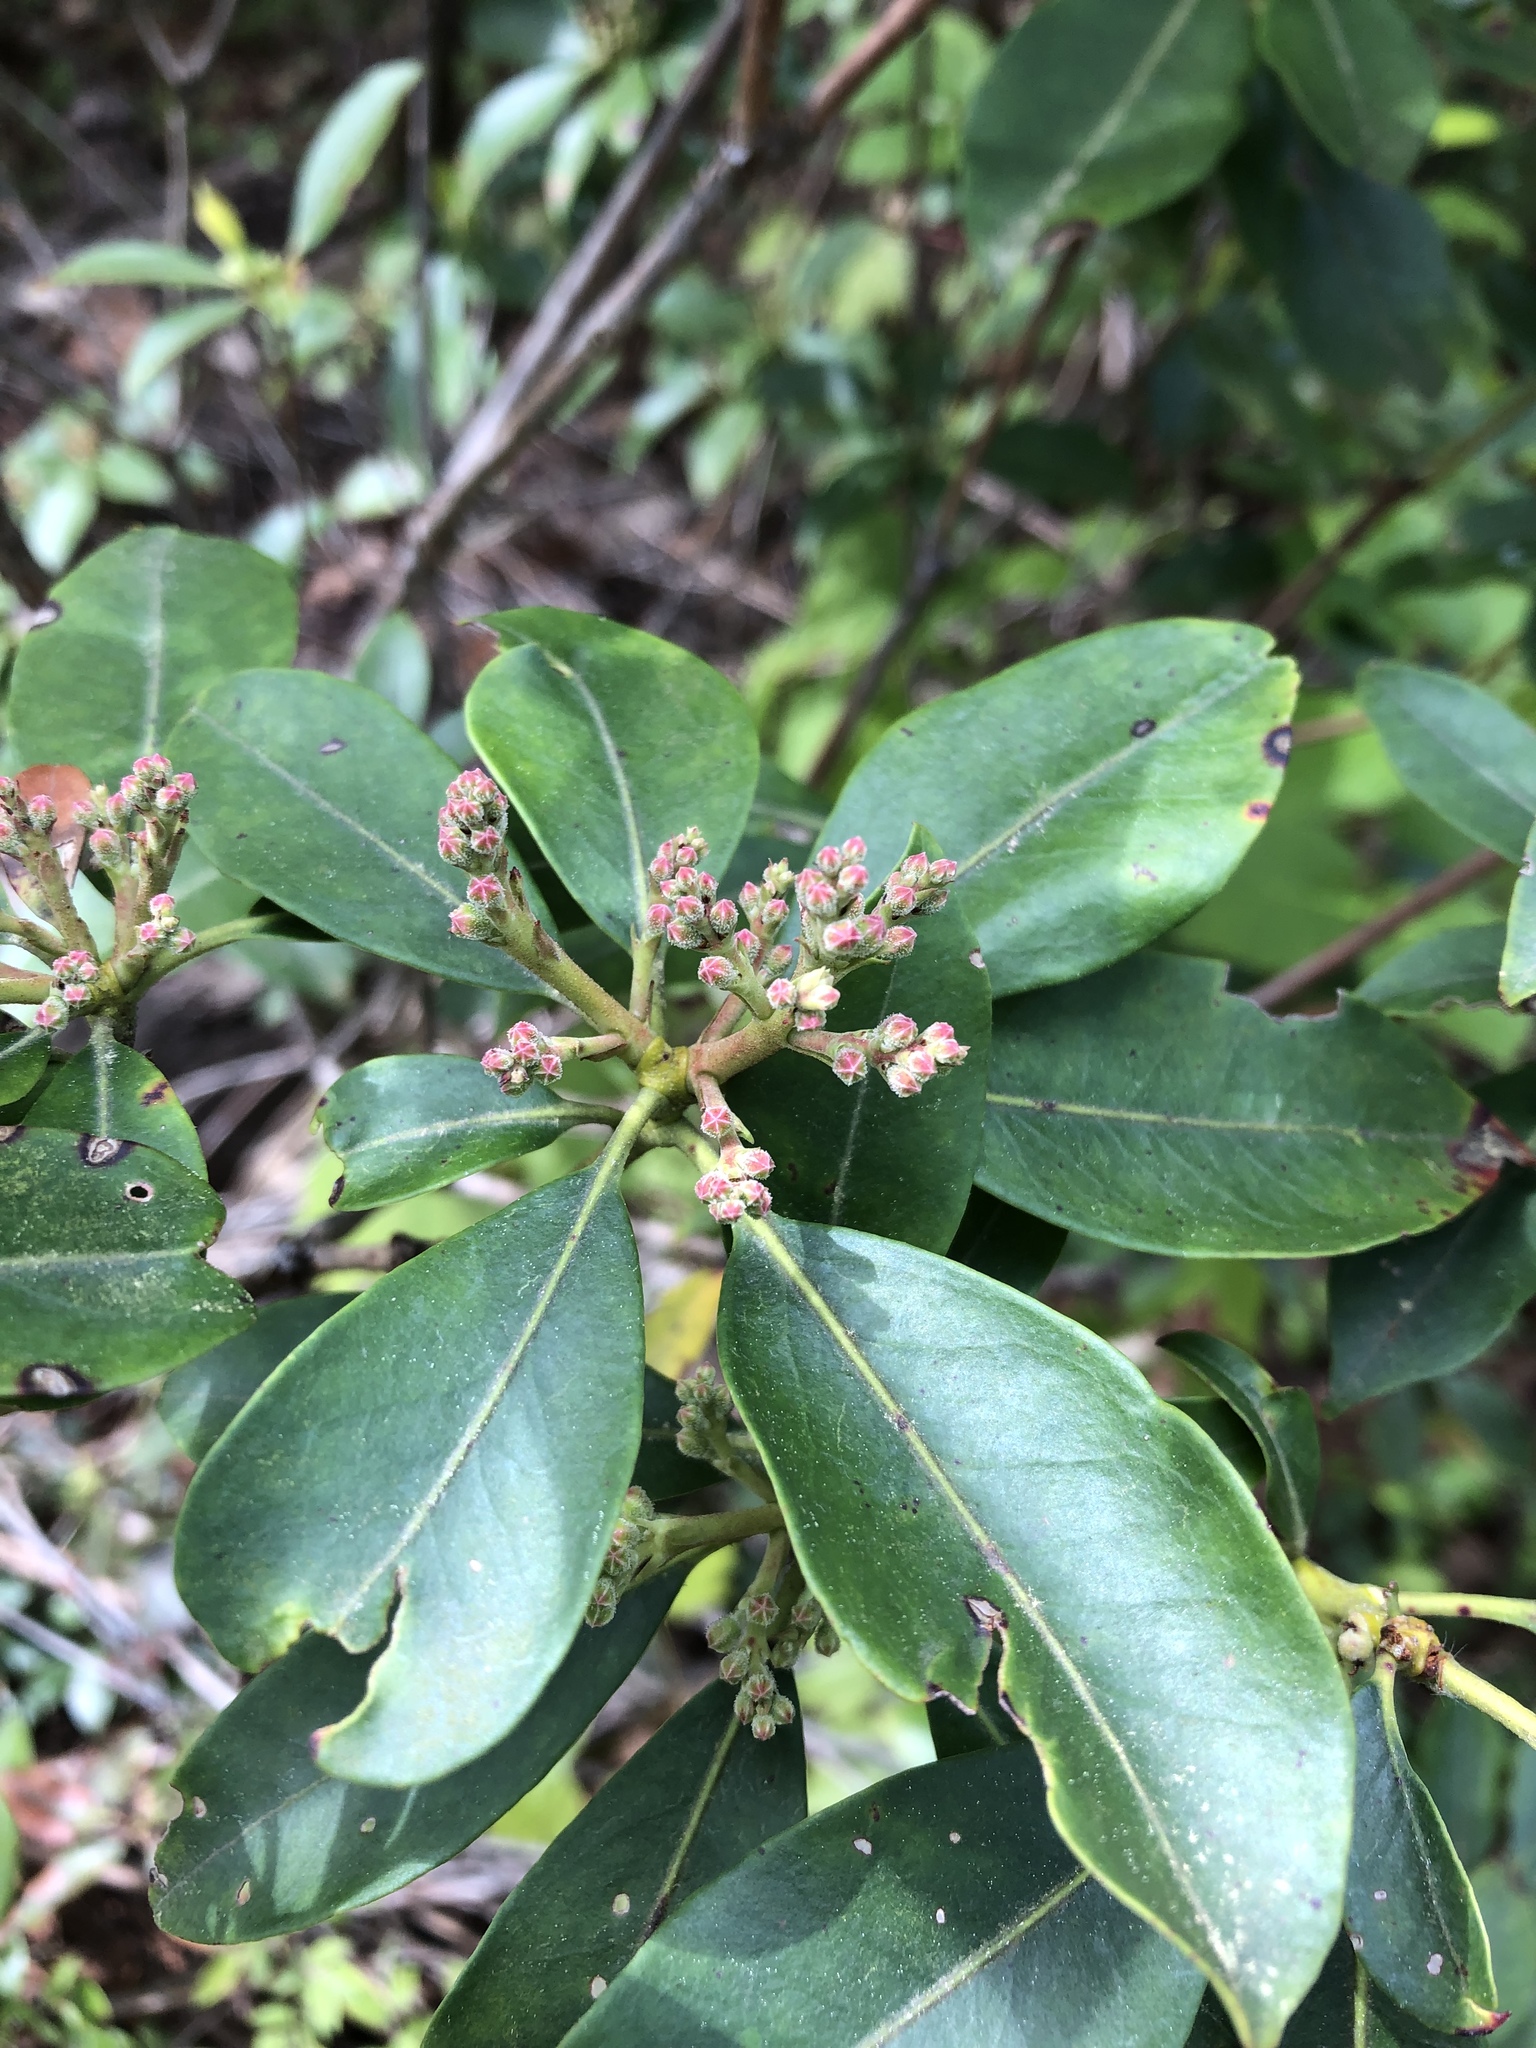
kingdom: Plantae
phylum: Tracheophyta
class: Magnoliopsida
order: Ericales
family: Ericaceae
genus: Kalmia
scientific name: Kalmia latifolia
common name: Mountain-laurel
